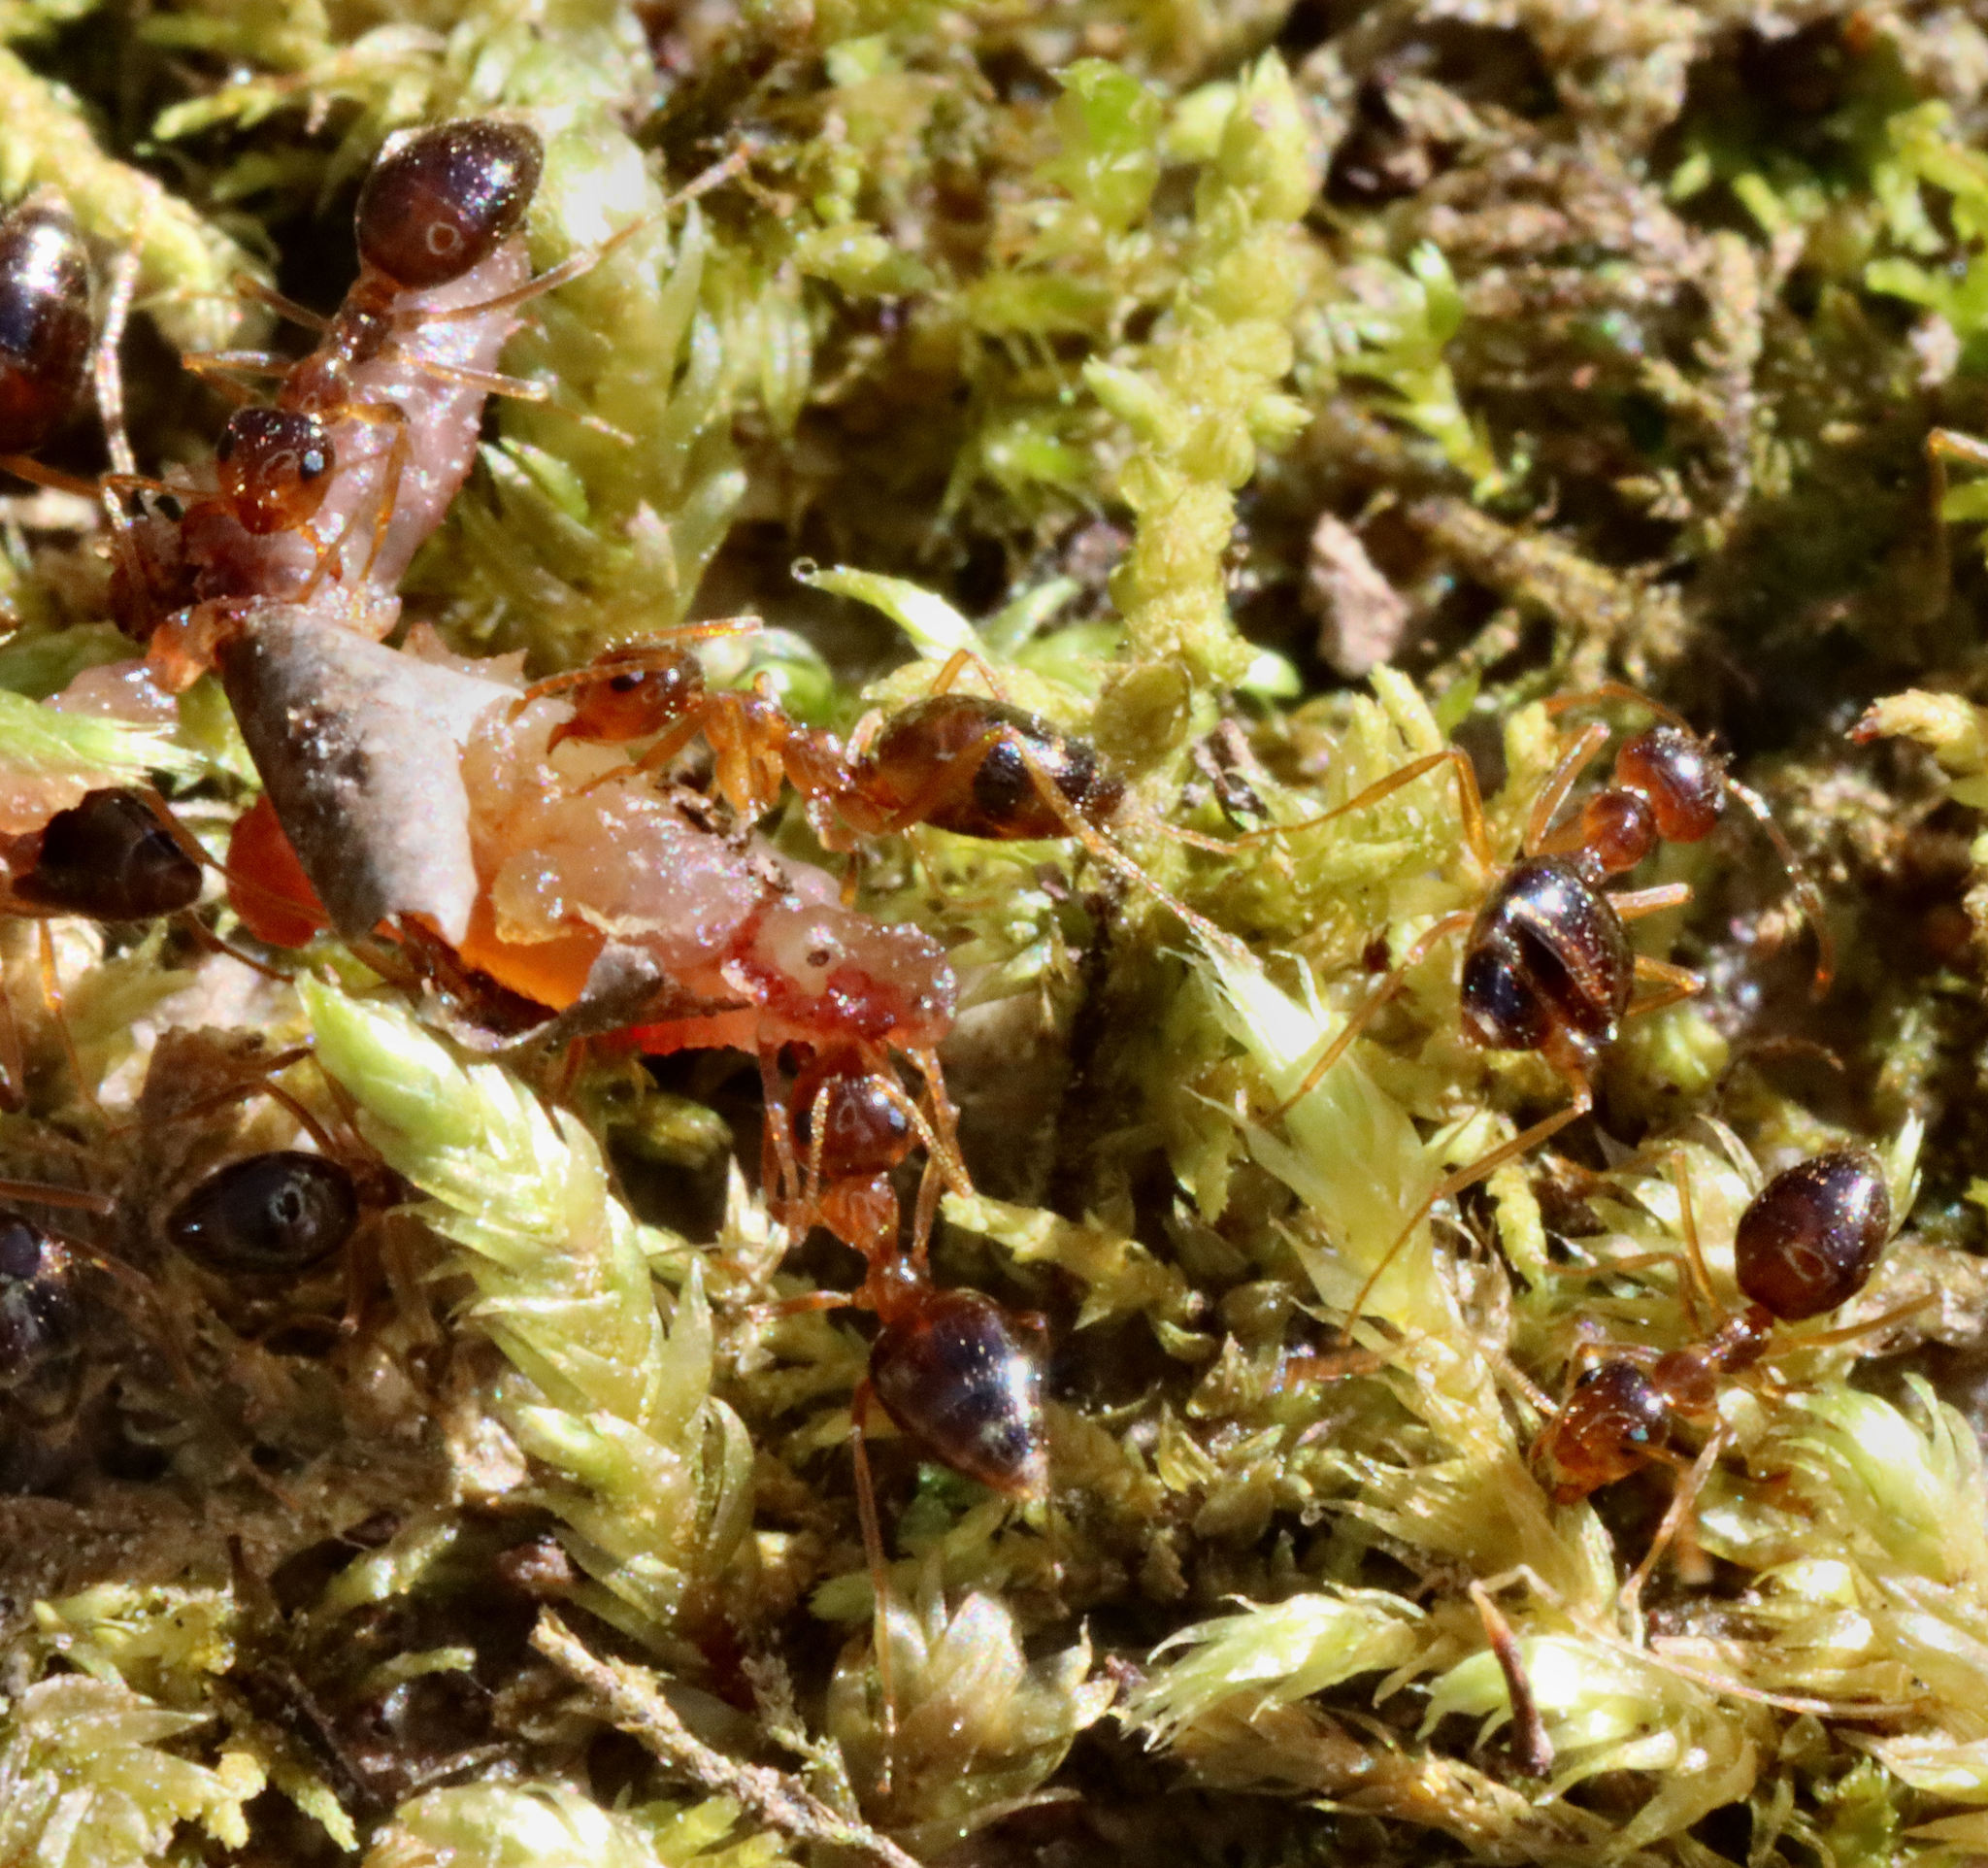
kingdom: Animalia
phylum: Arthropoda
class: Insecta
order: Hymenoptera
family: Formicidae
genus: Prenolepis
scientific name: Prenolepis imparis
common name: Small honey ant
